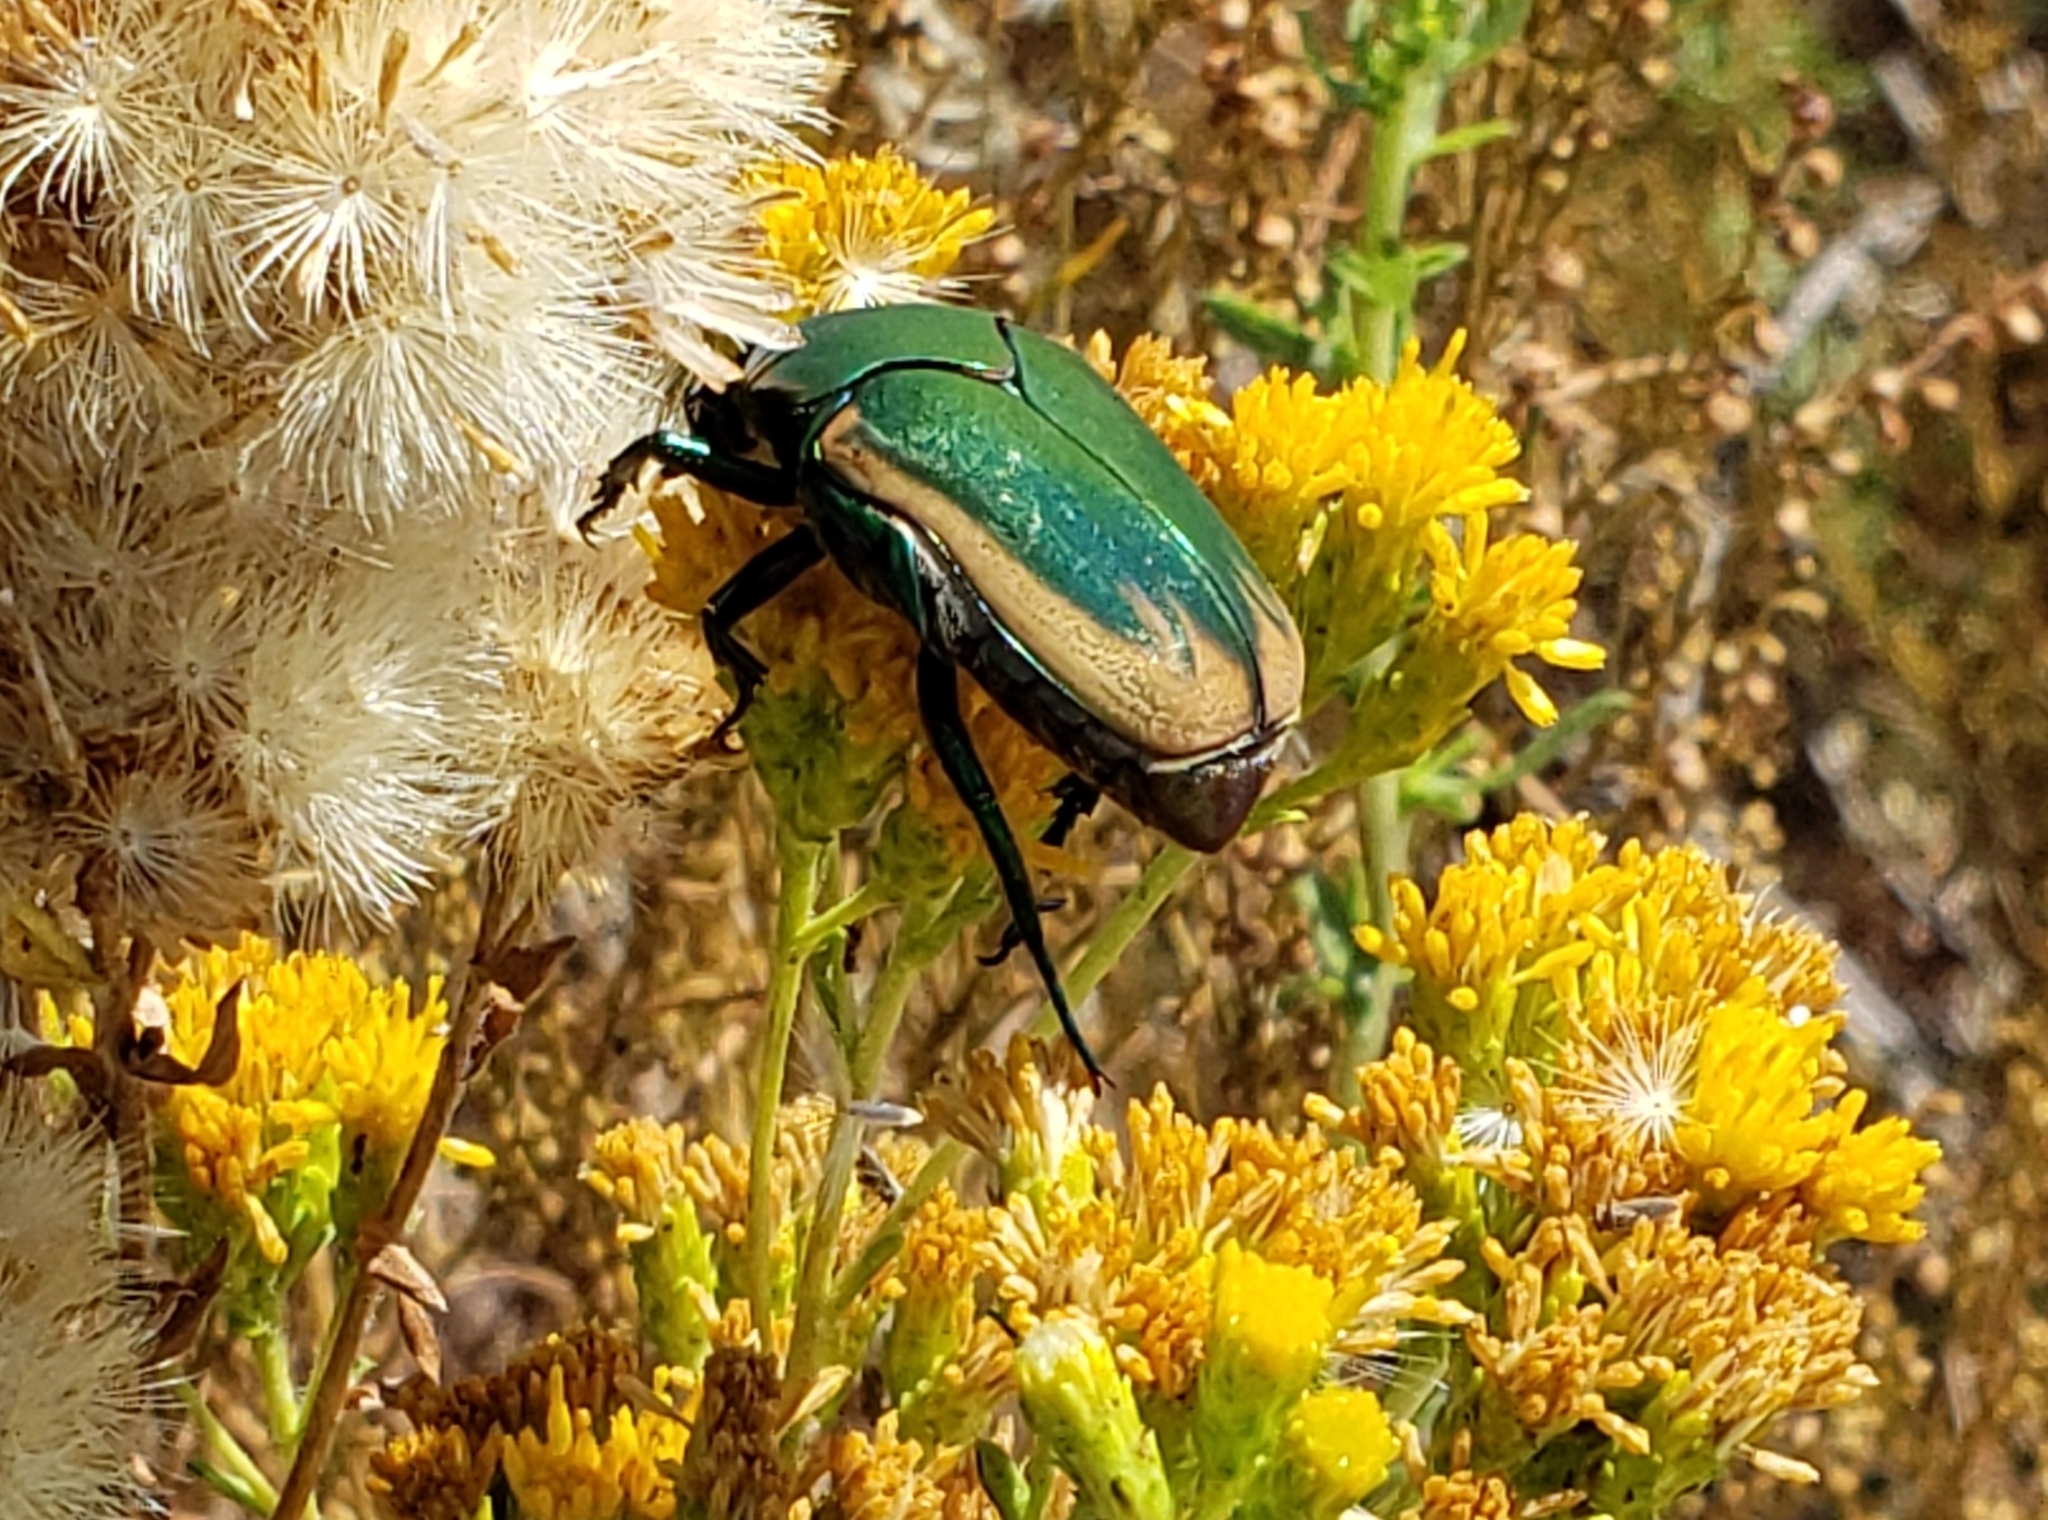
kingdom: Animalia
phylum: Arthropoda
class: Insecta
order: Coleoptera
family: Scarabaeidae
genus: Cotinis
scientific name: Cotinis mutabilis
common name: Figeater beetle
